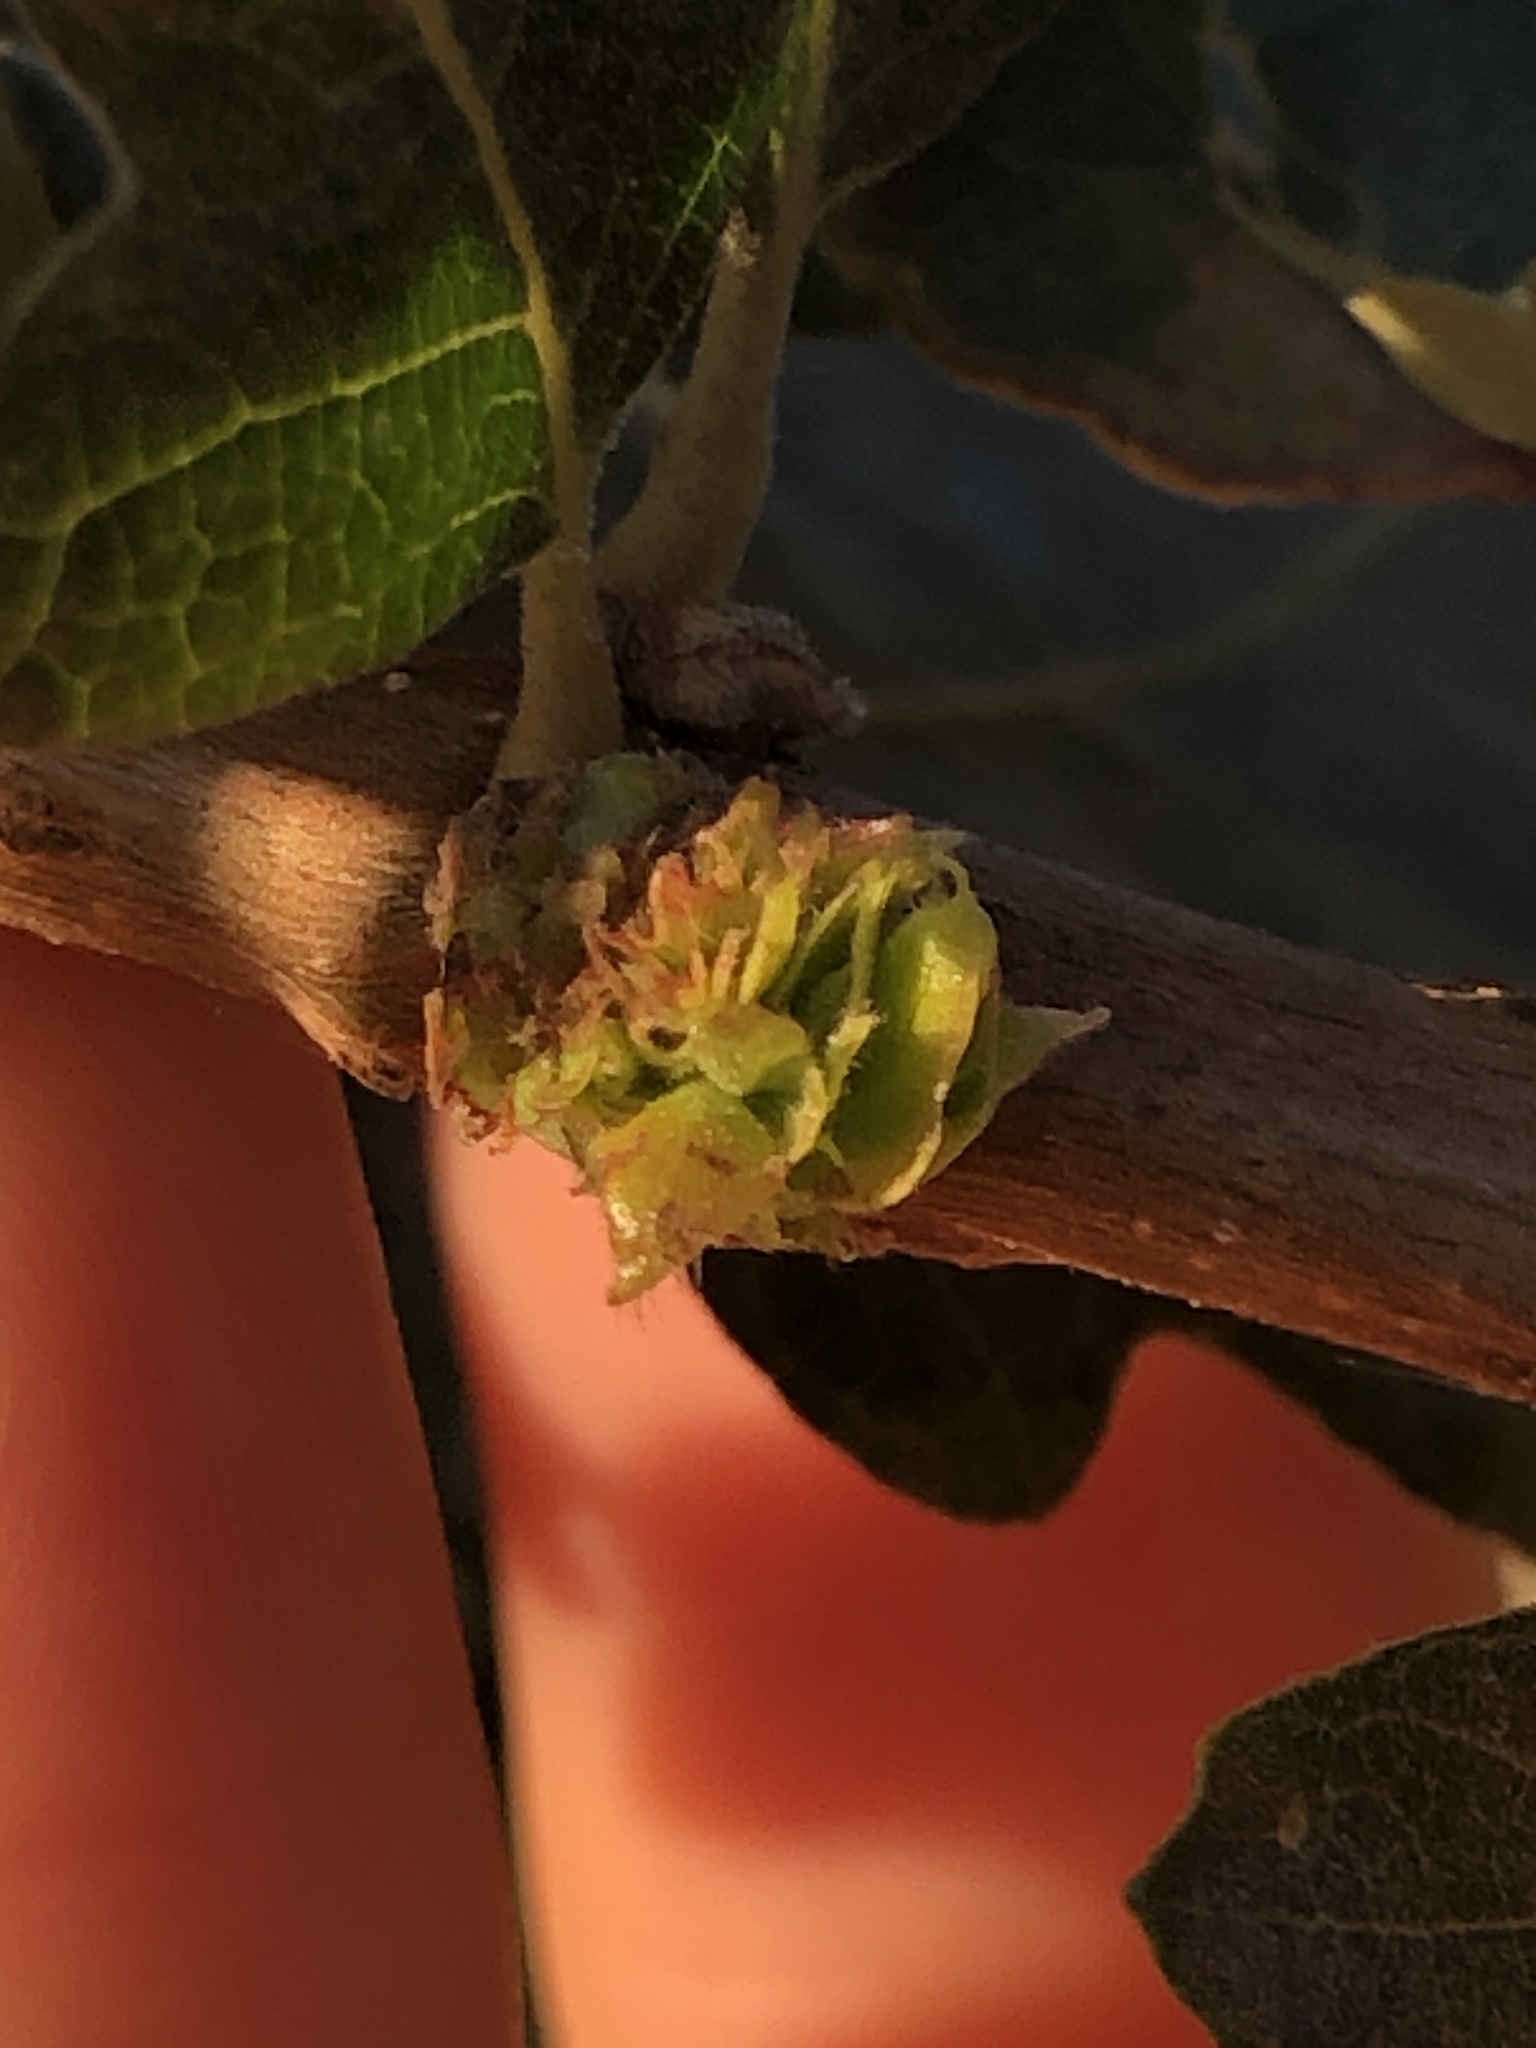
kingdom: Animalia
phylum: Arthropoda
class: Insecta
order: Hymenoptera
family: Cynipidae
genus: Andricus
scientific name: Andricus
